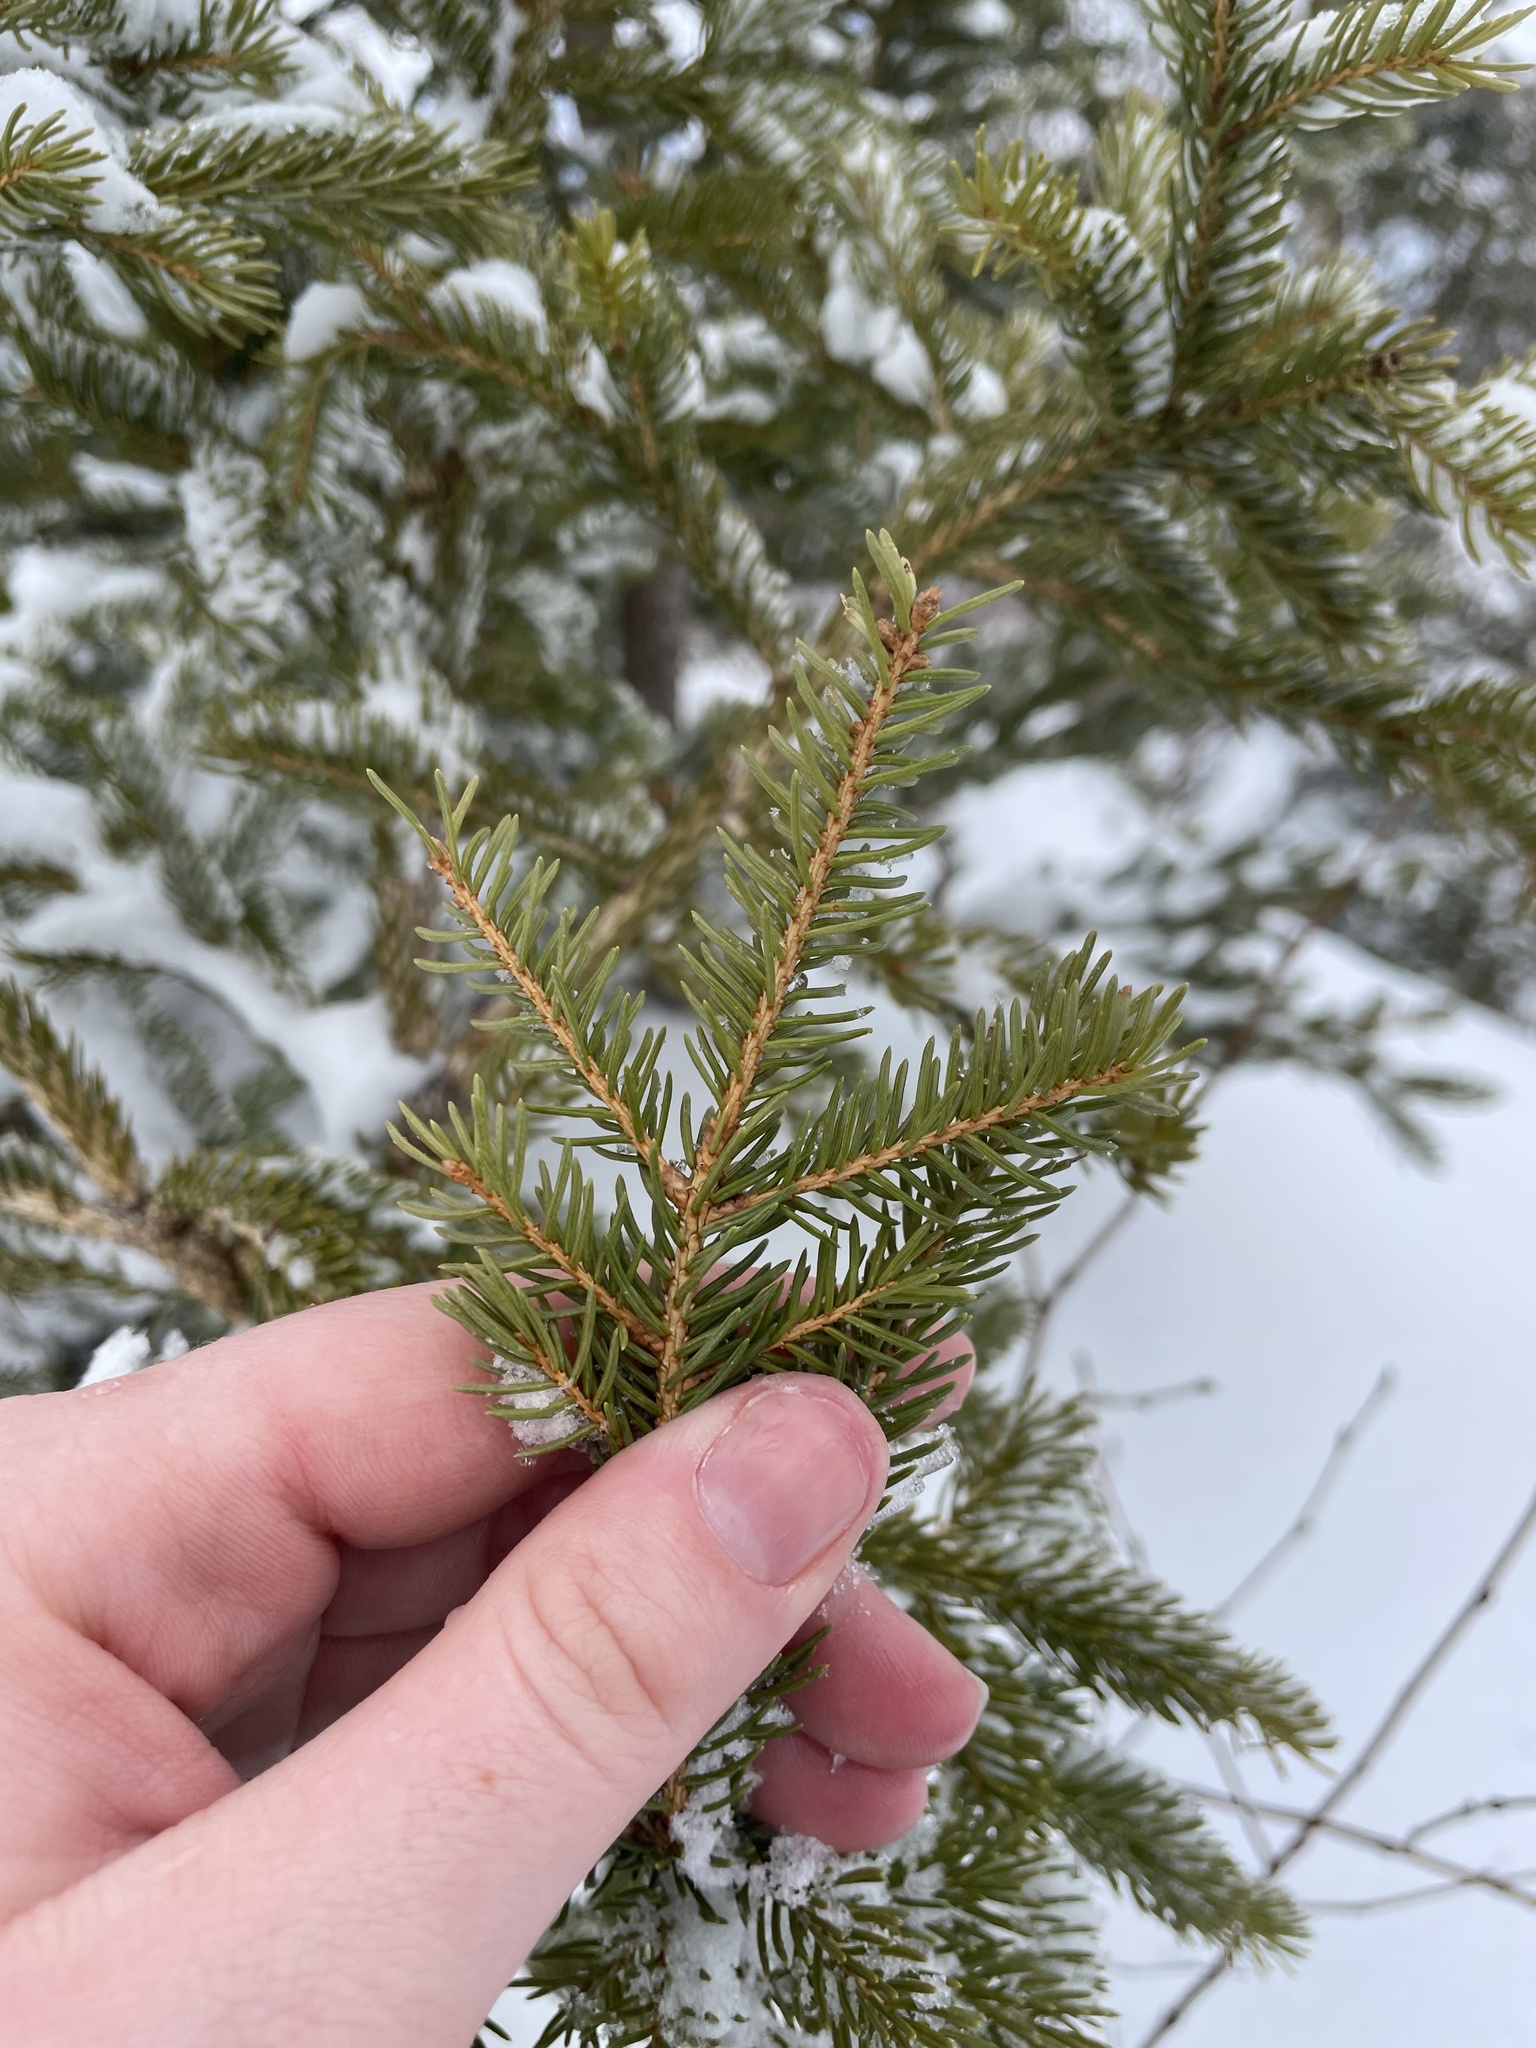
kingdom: Plantae
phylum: Tracheophyta
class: Pinopsida
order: Pinales
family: Pinaceae
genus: Picea
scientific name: Picea glauca
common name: White spruce
